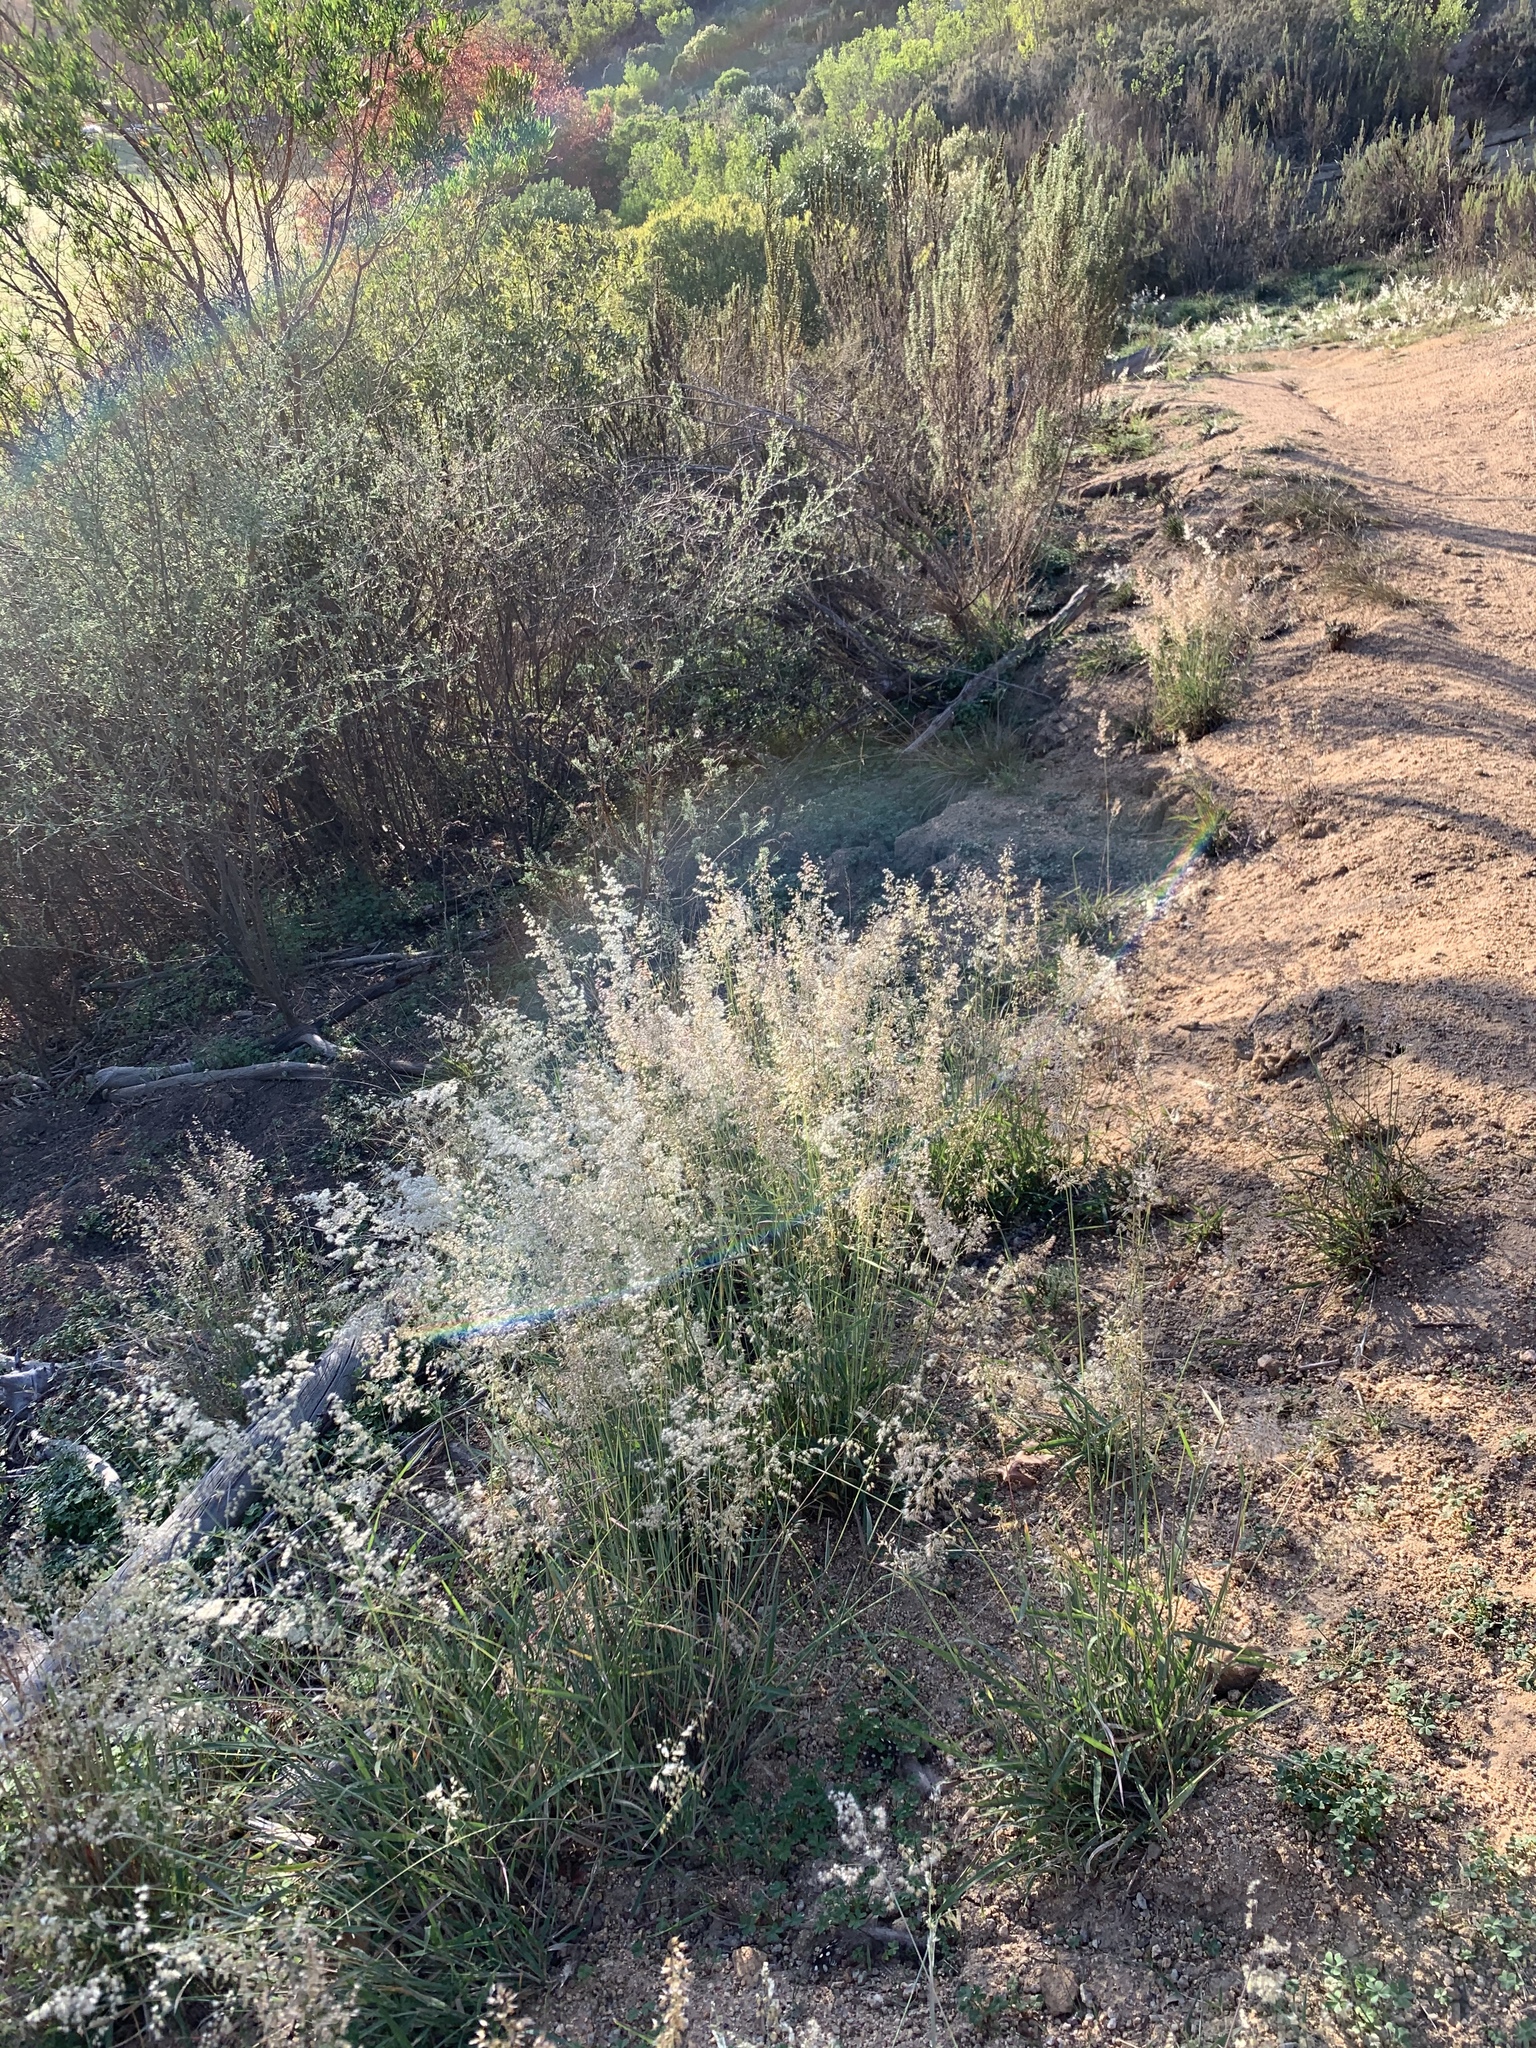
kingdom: Plantae
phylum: Tracheophyta
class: Liliopsida
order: Poales
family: Poaceae
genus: Melinis
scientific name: Melinis repens
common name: Rose natal grass
